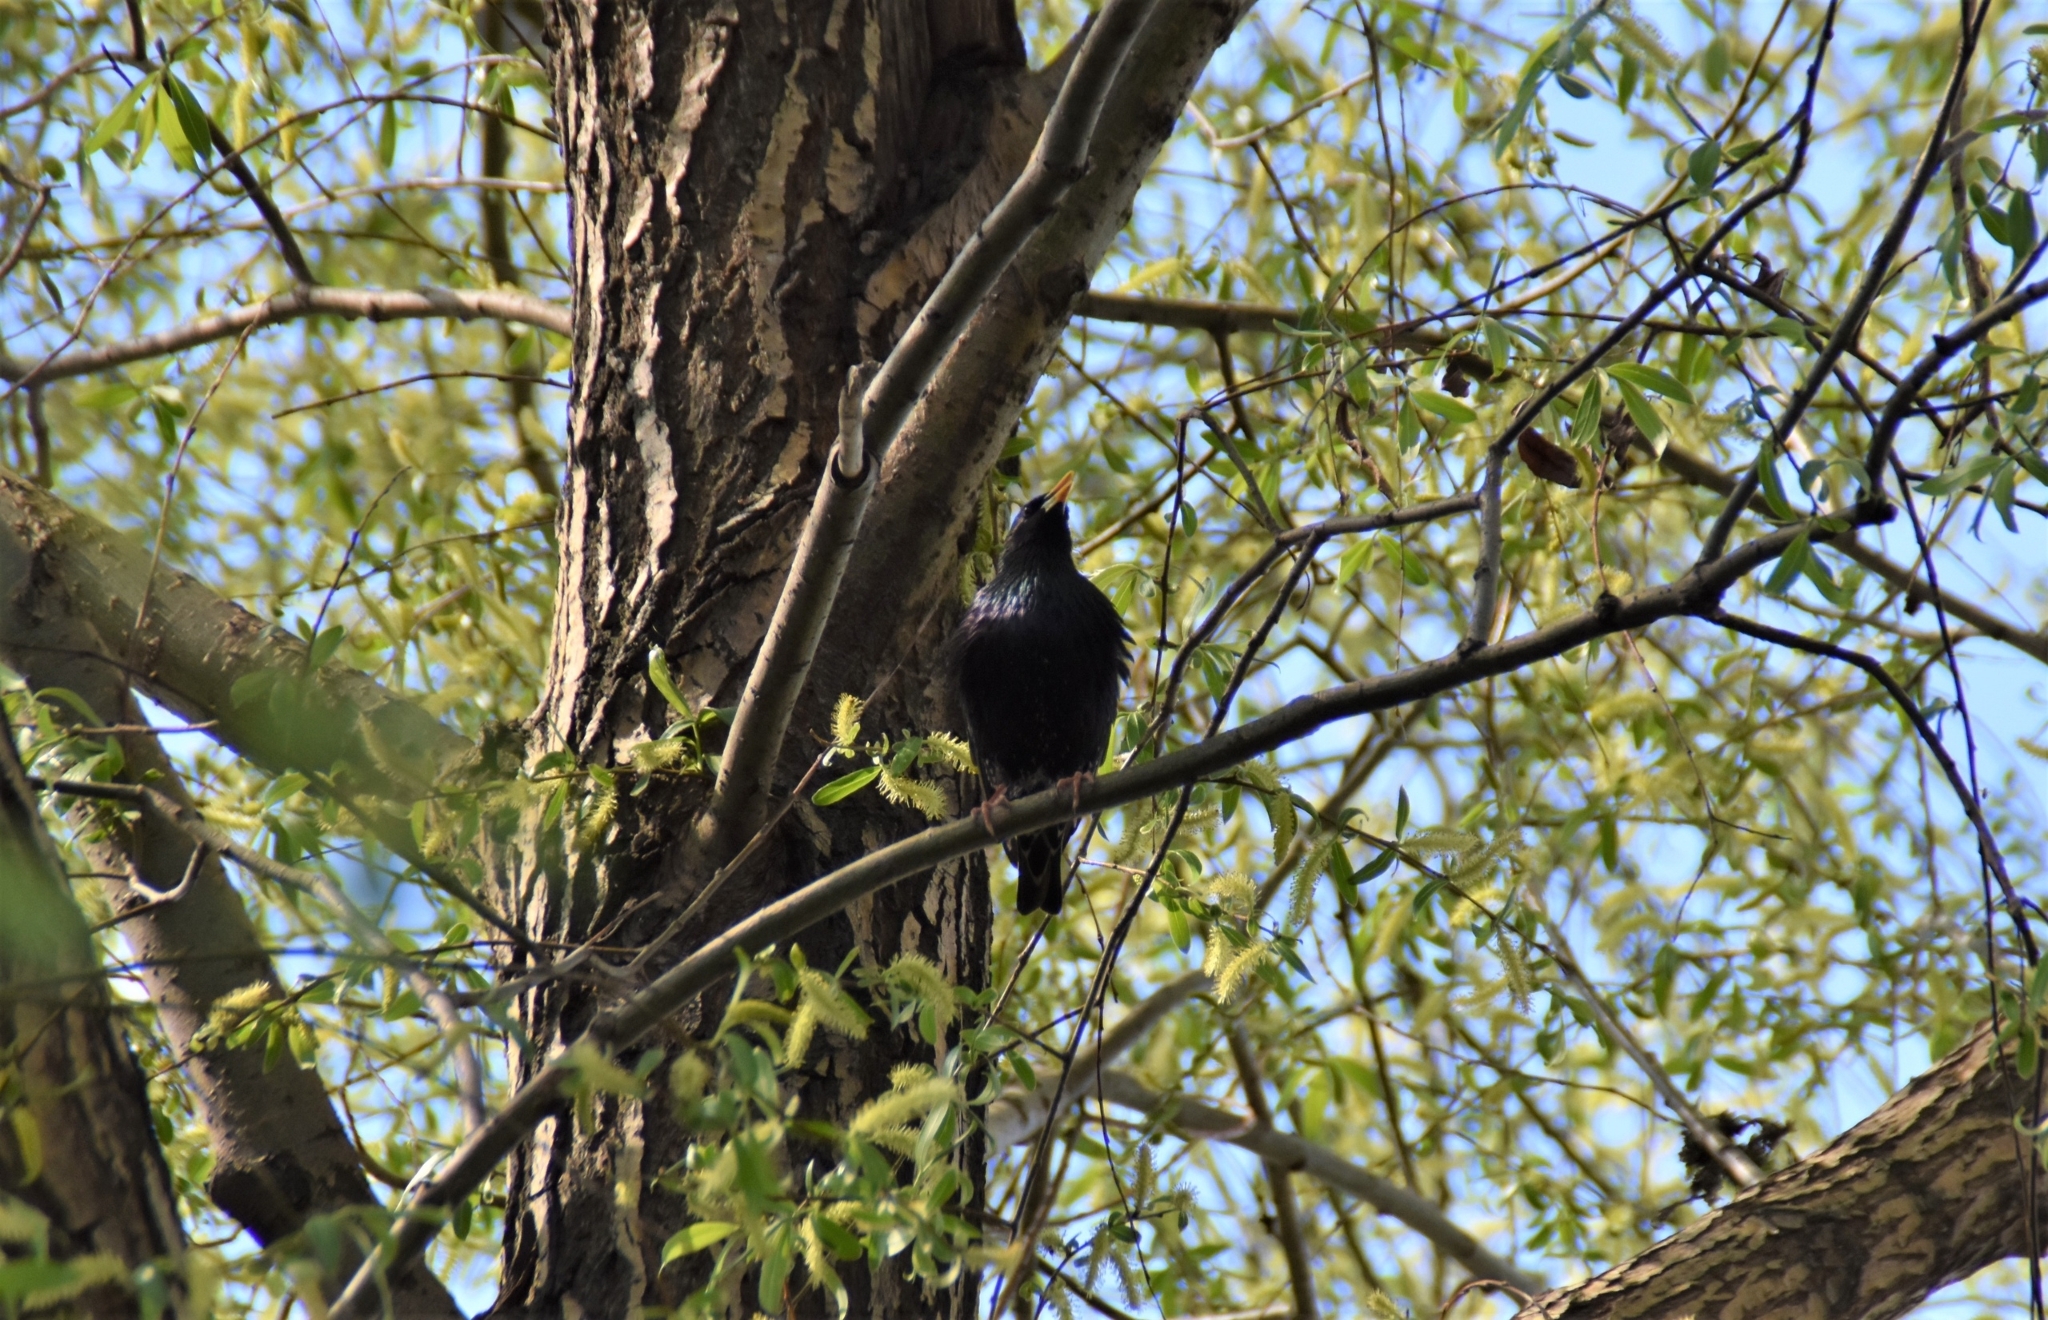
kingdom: Animalia
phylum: Chordata
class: Aves
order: Passeriformes
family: Sturnidae
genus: Sturnus
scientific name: Sturnus vulgaris
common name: Common starling
